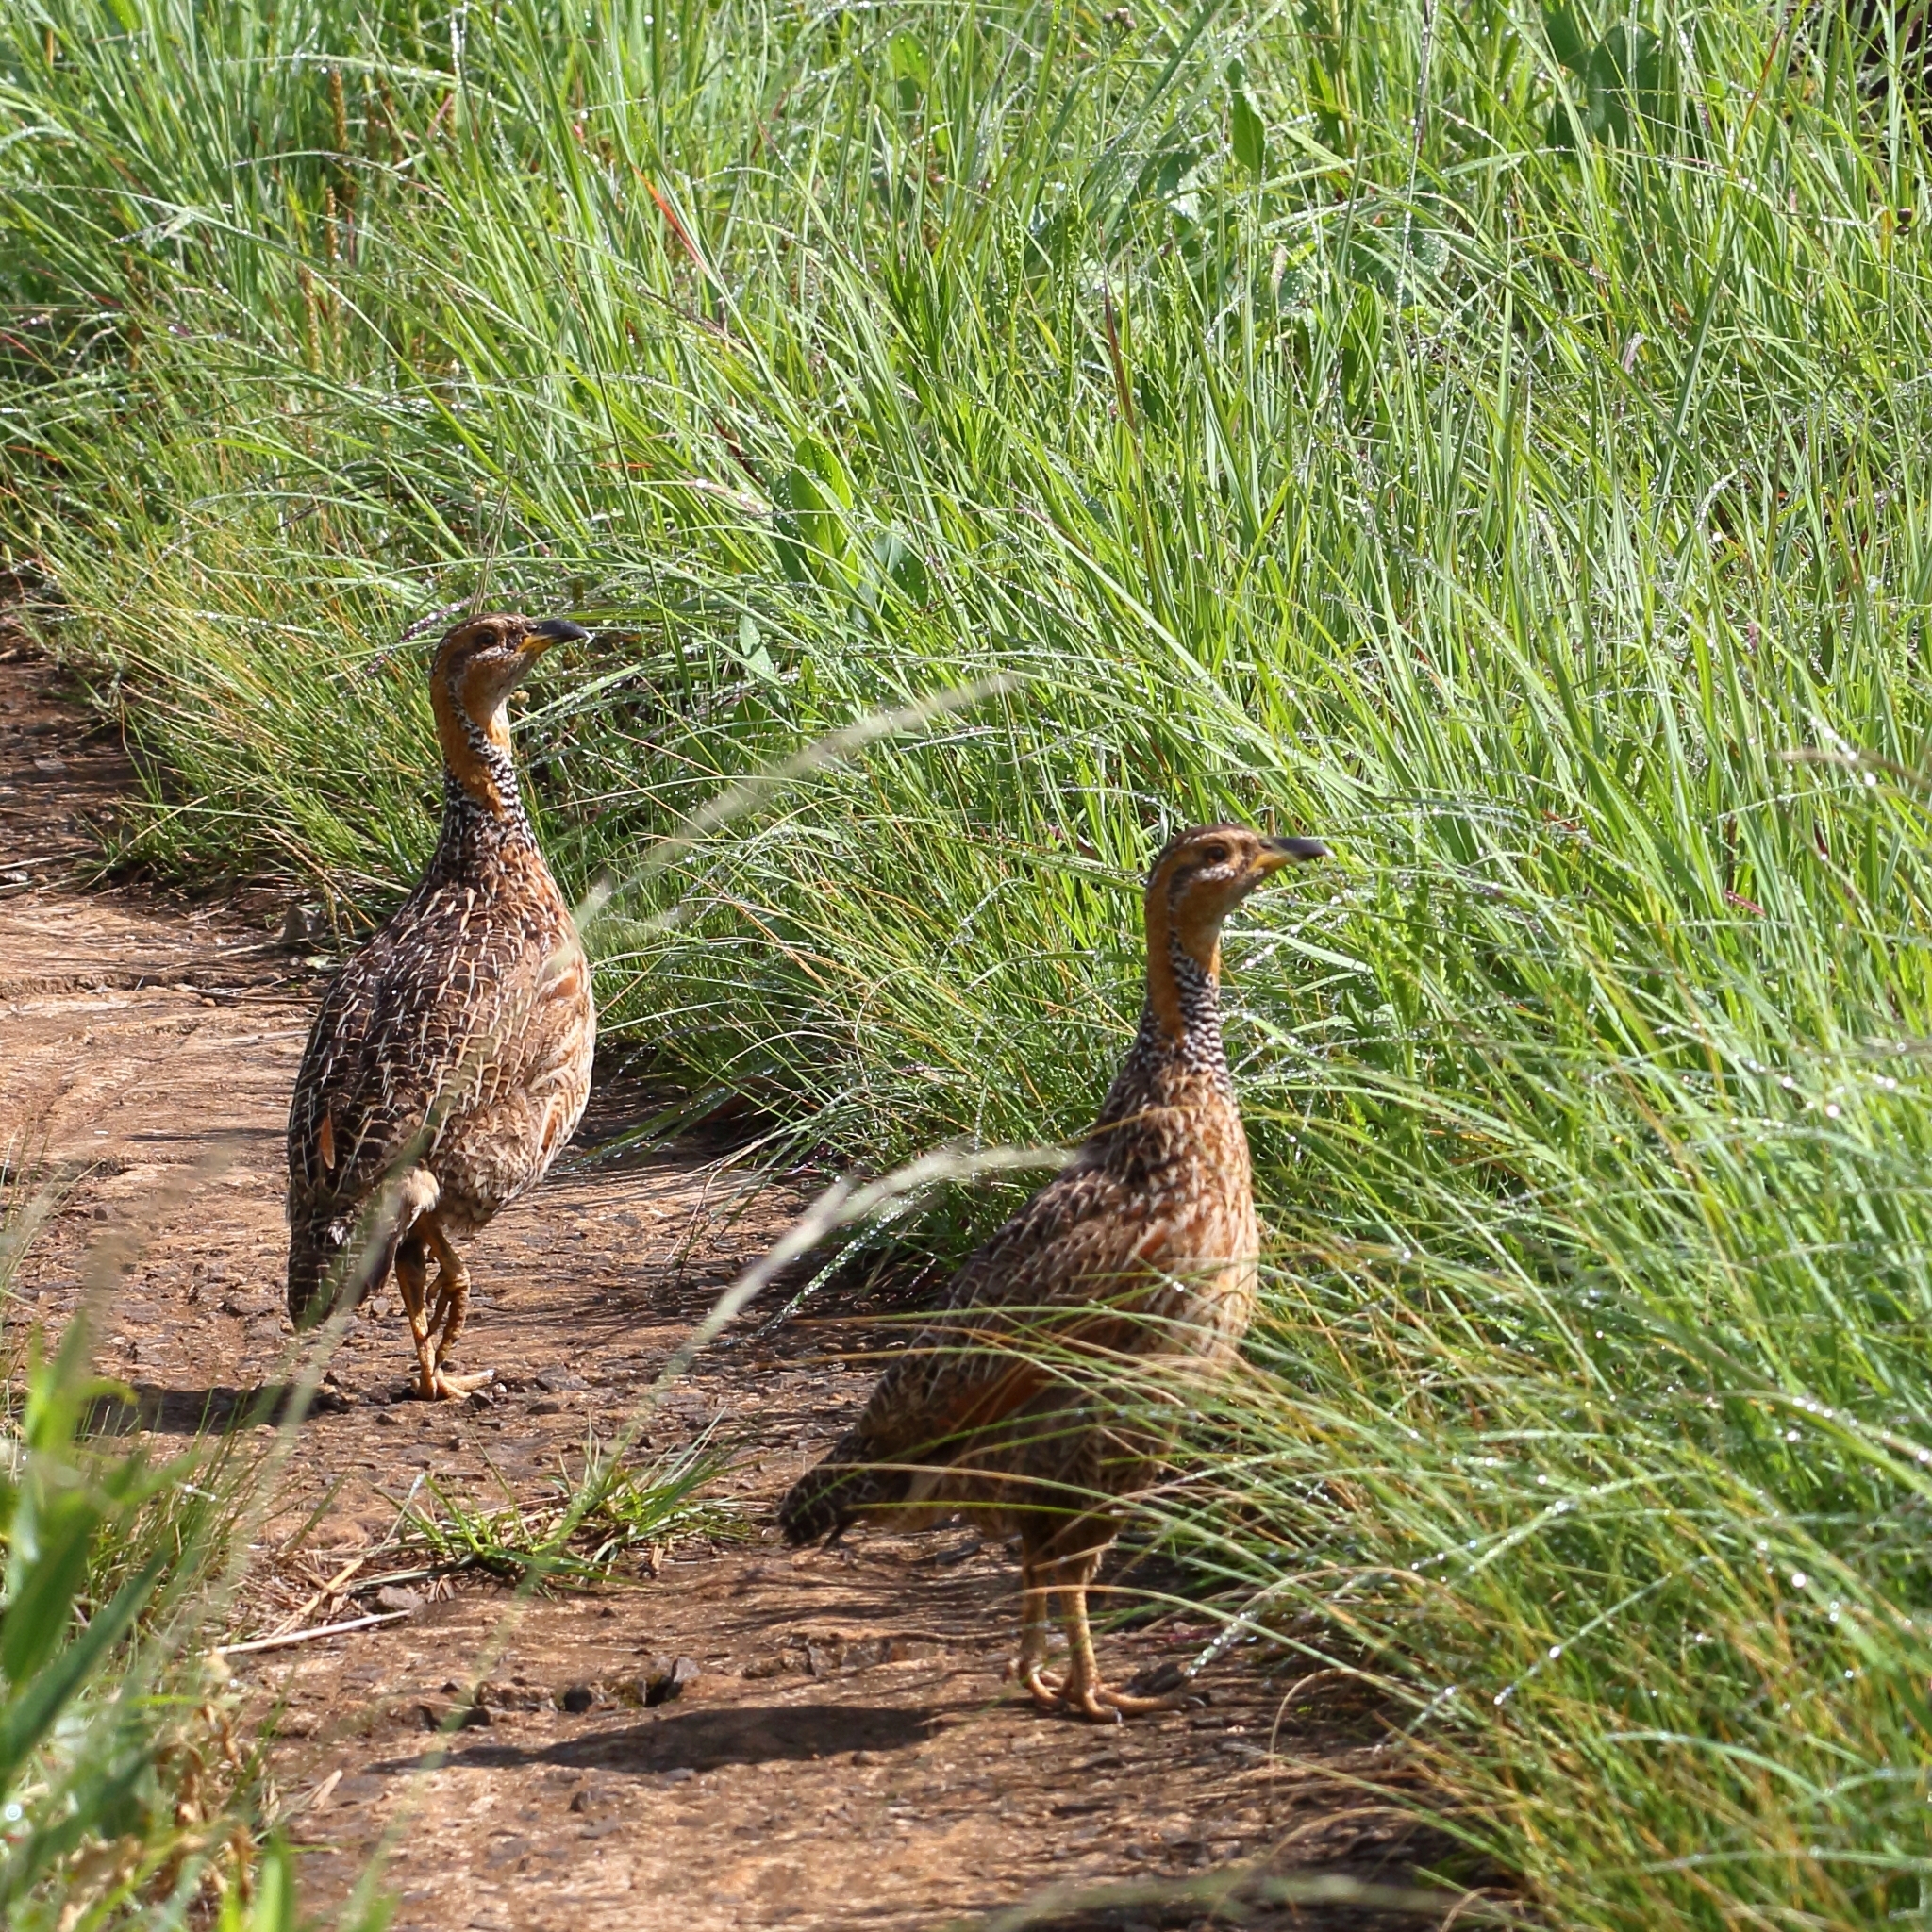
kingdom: Animalia
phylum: Chordata
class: Aves
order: Galliformes
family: Phasianidae
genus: Scleroptila
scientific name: Scleroptila levaillantii
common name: Red-winged francolin
